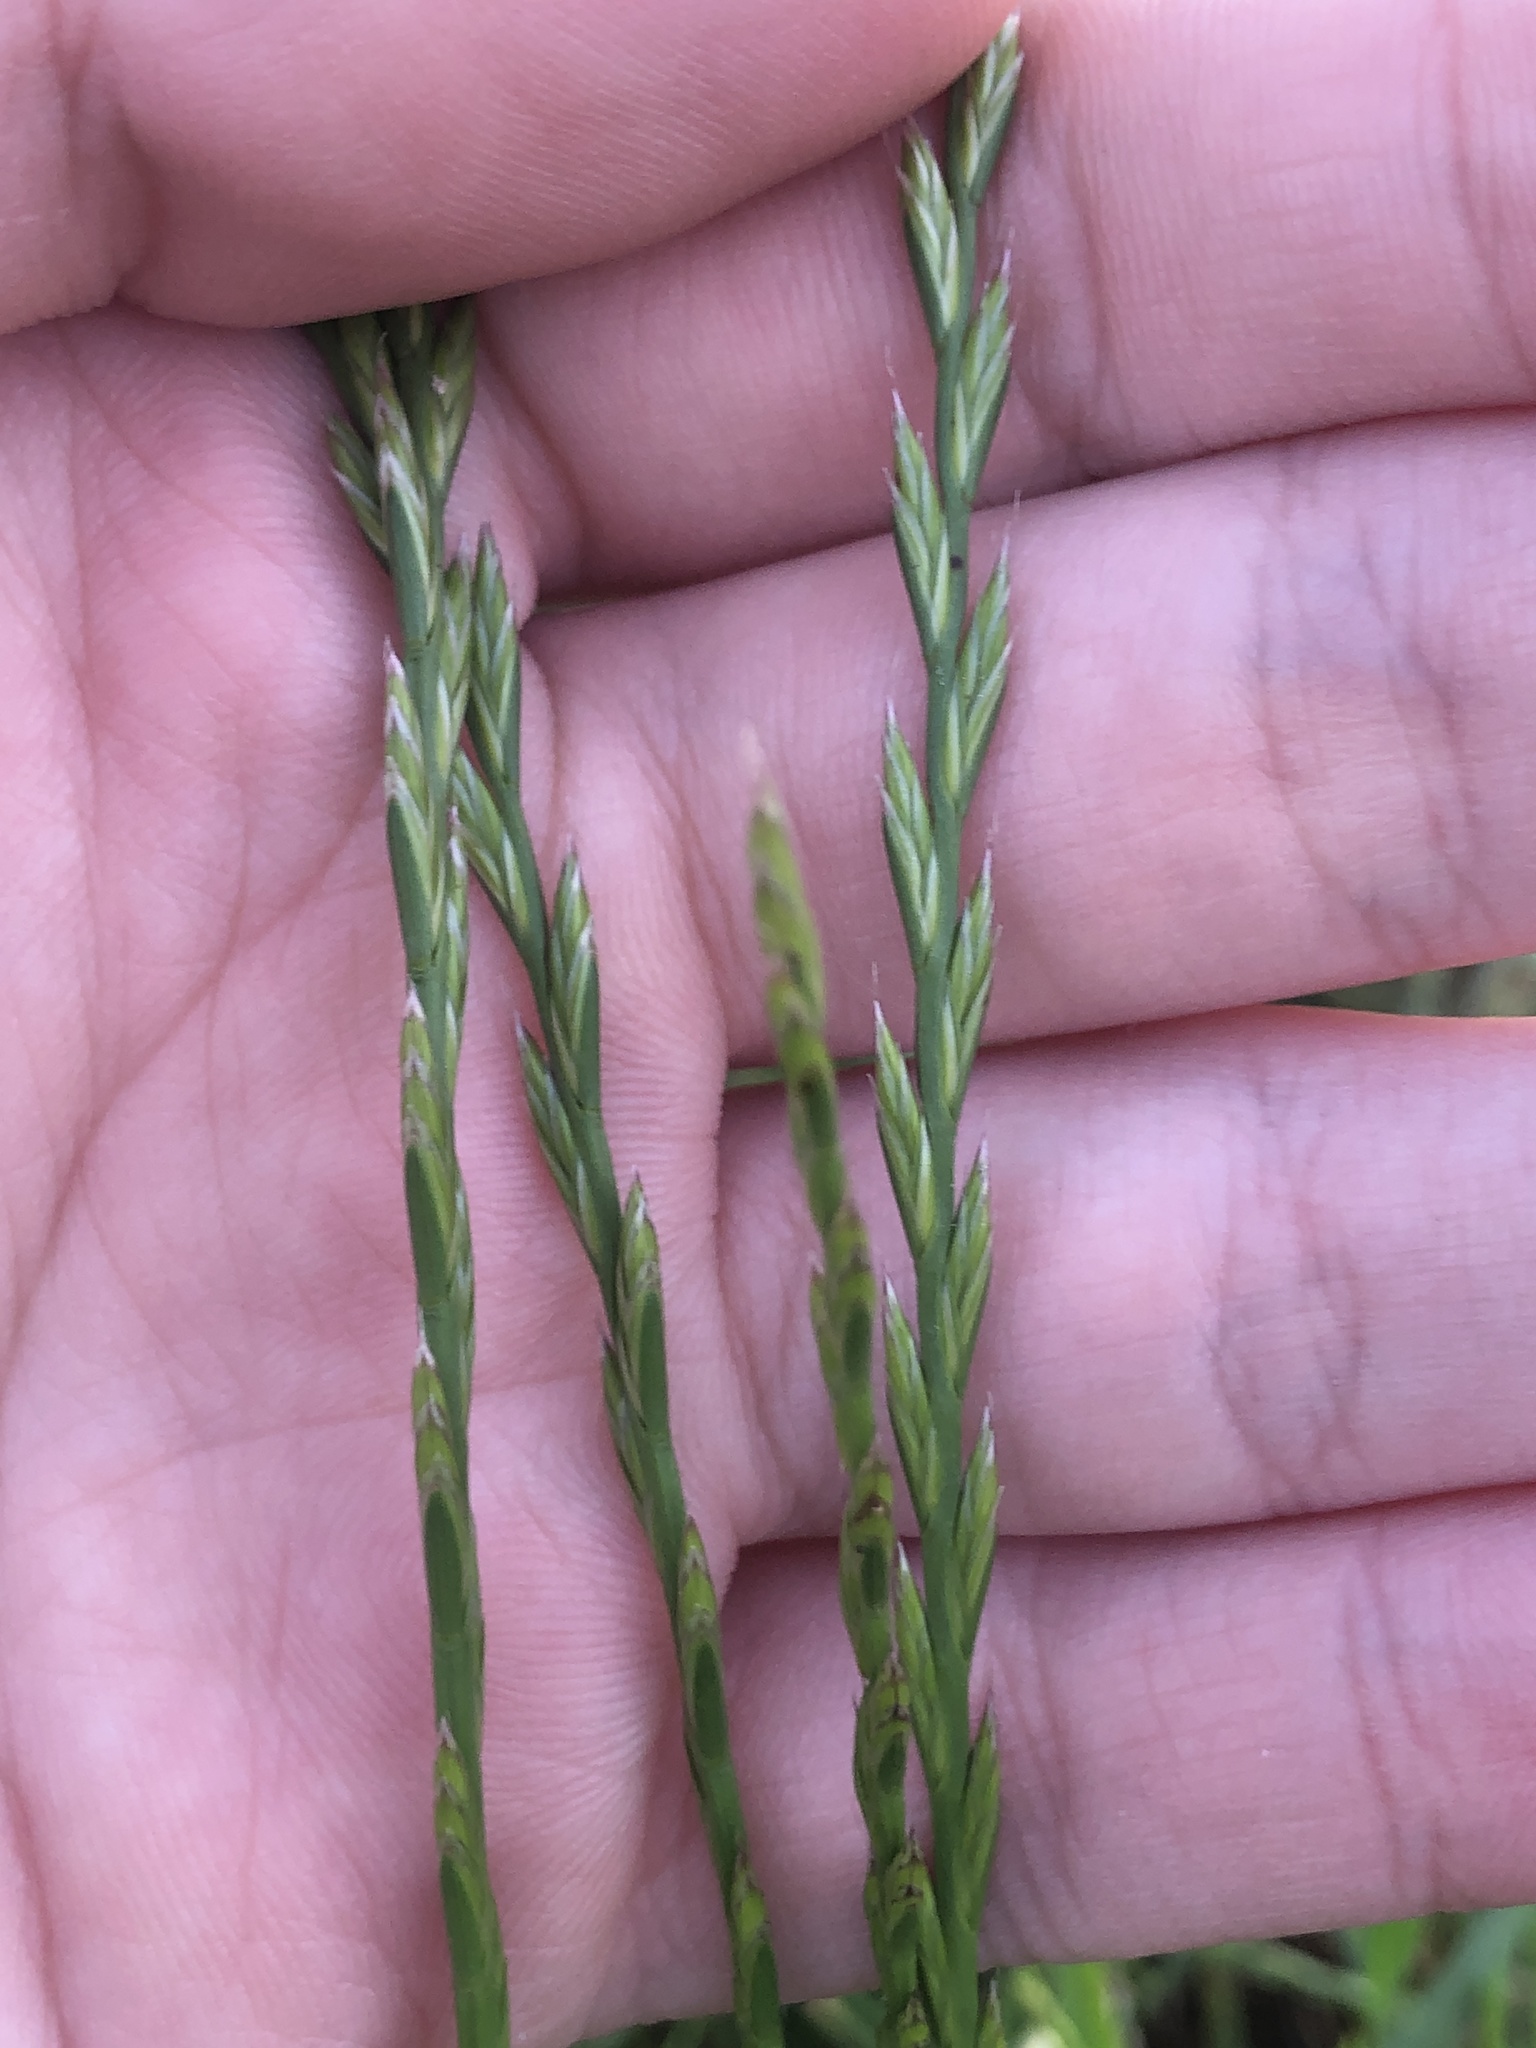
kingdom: Plantae
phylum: Tracheophyta
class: Liliopsida
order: Poales
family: Poaceae
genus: Lolium
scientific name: Lolium perenne
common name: Perennial ryegrass
